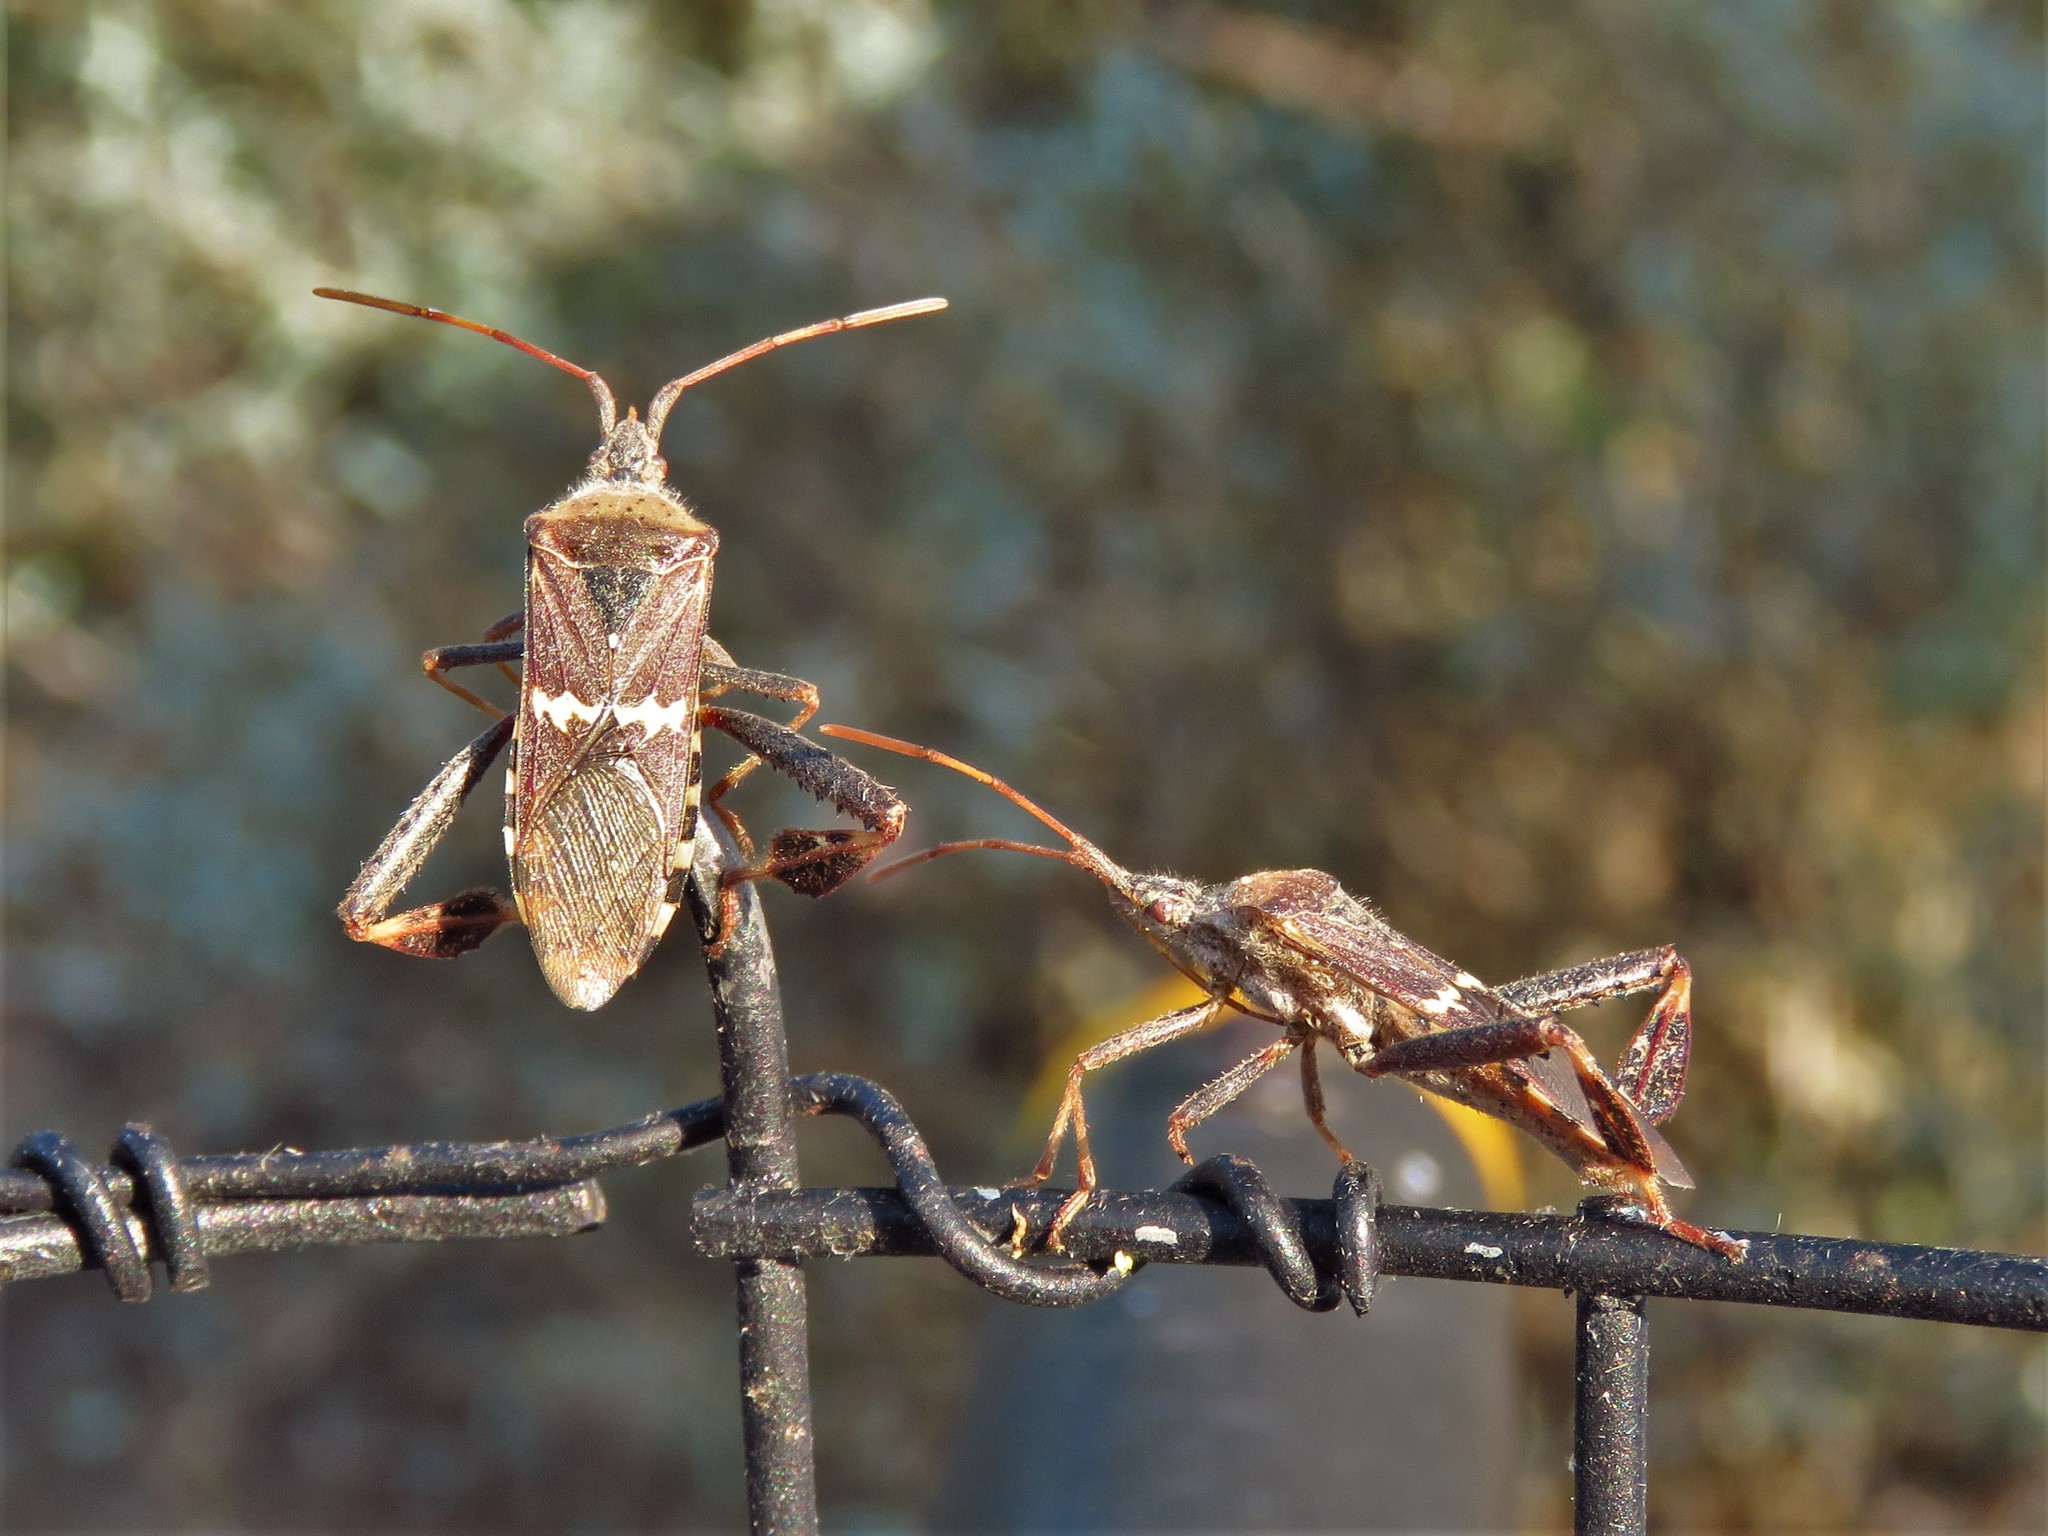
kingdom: Animalia
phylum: Arthropoda
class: Insecta
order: Hemiptera
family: Coreidae
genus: Leptoglossus
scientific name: Leptoglossus clypealis
